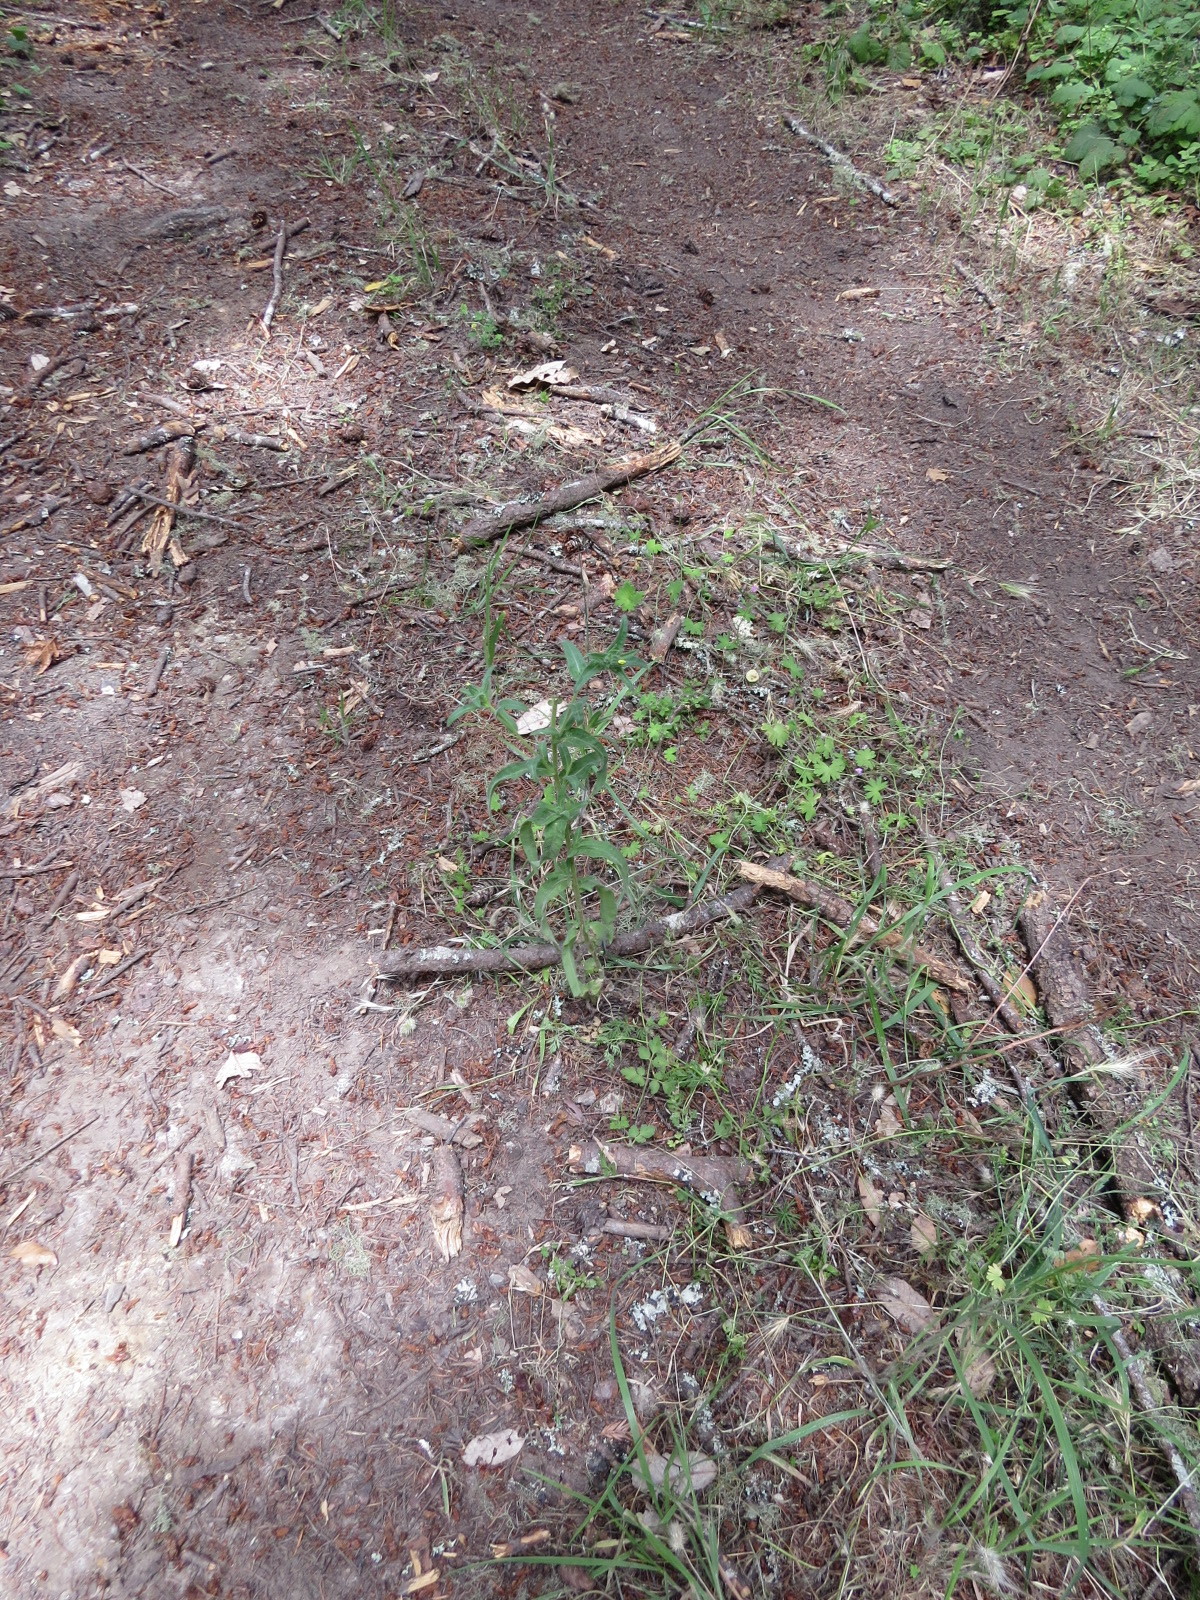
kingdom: Plantae
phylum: Tracheophyta
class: Magnoliopsida
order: Asterales
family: Asteraceae
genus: Madia
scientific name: Madia gracilis
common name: Grassy tarweed
